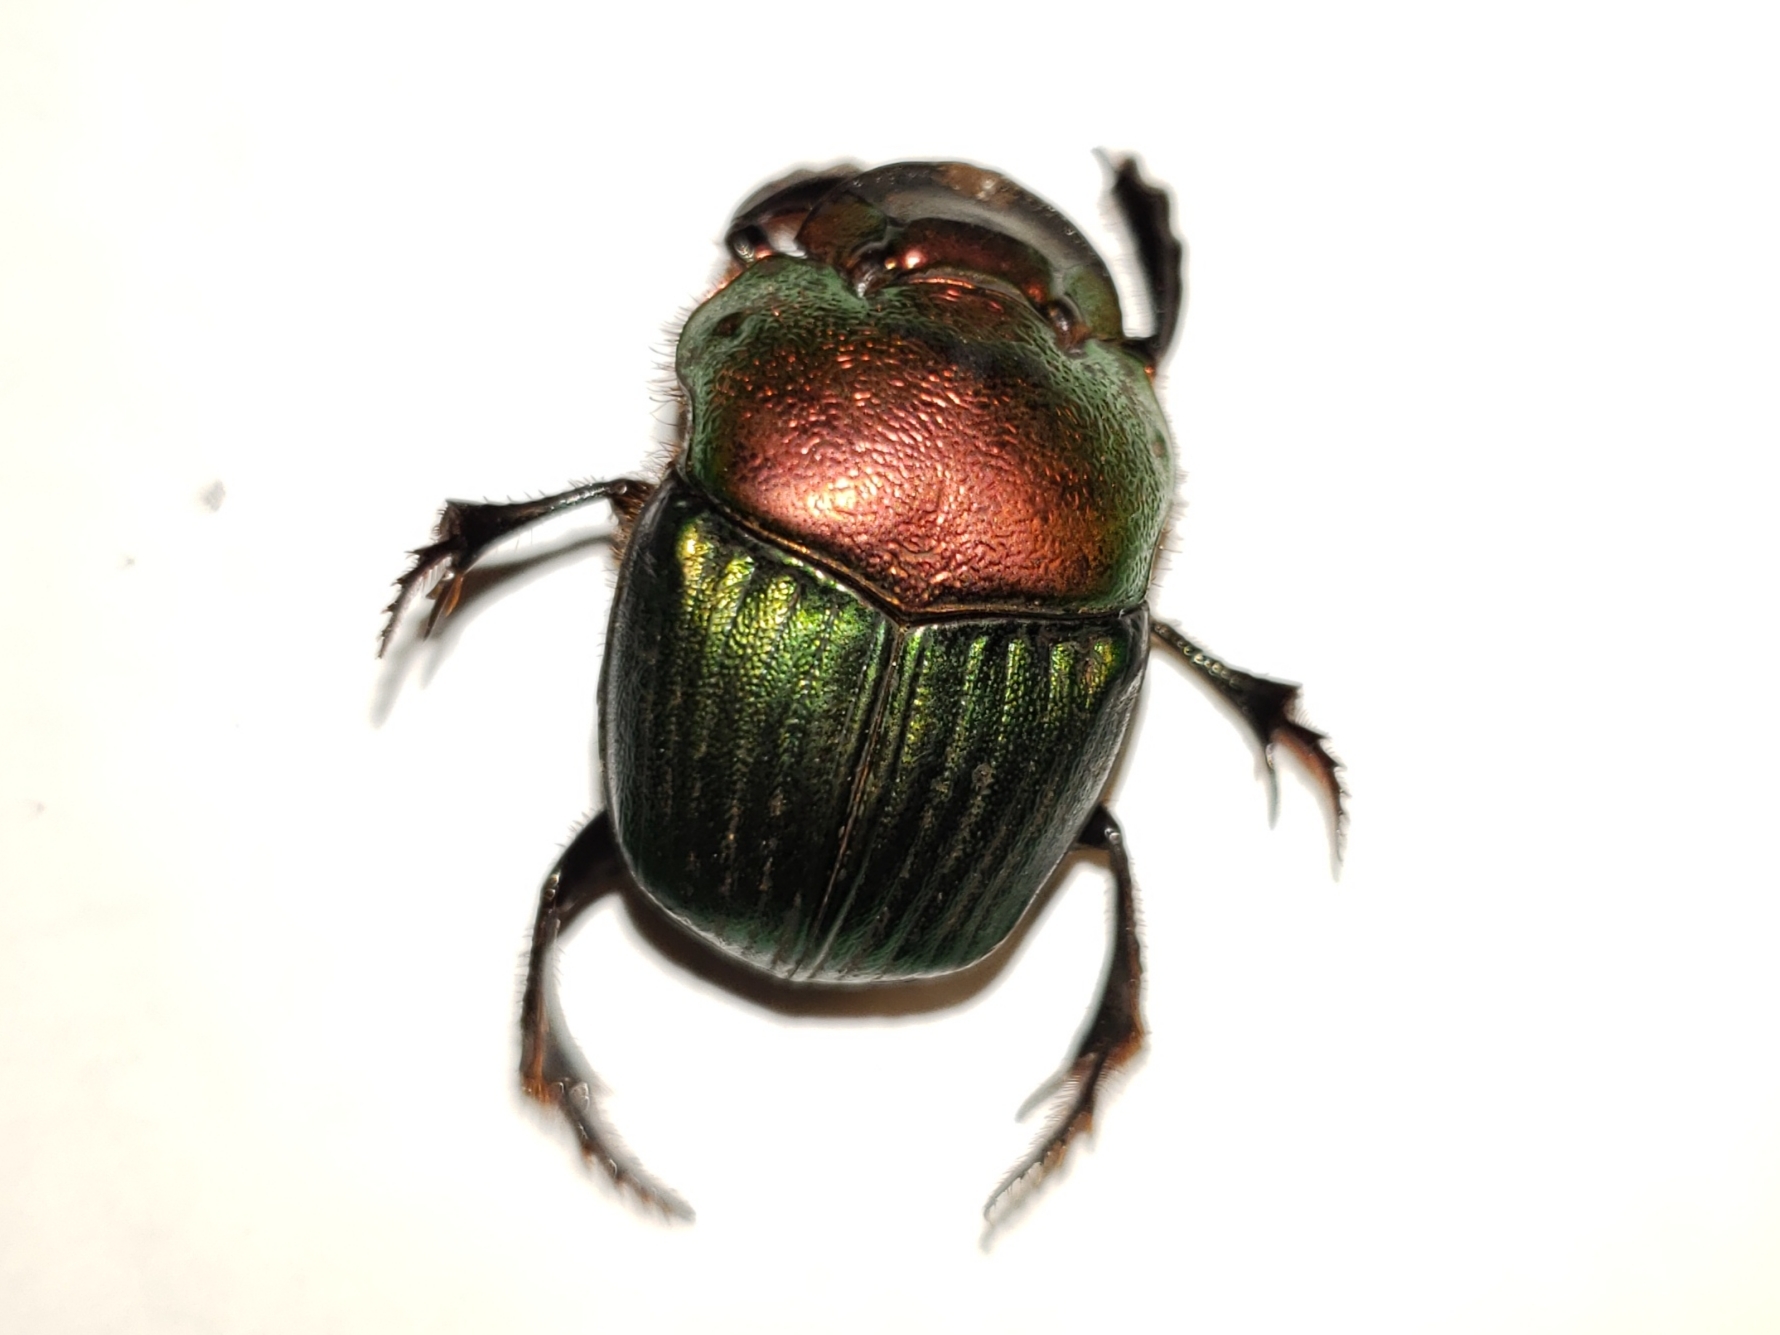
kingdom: Animalia
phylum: Arthropoda
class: Insecta
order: Coleoptera
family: Scarabaeidae
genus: Phanaeus
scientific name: Phanaeus igneus
